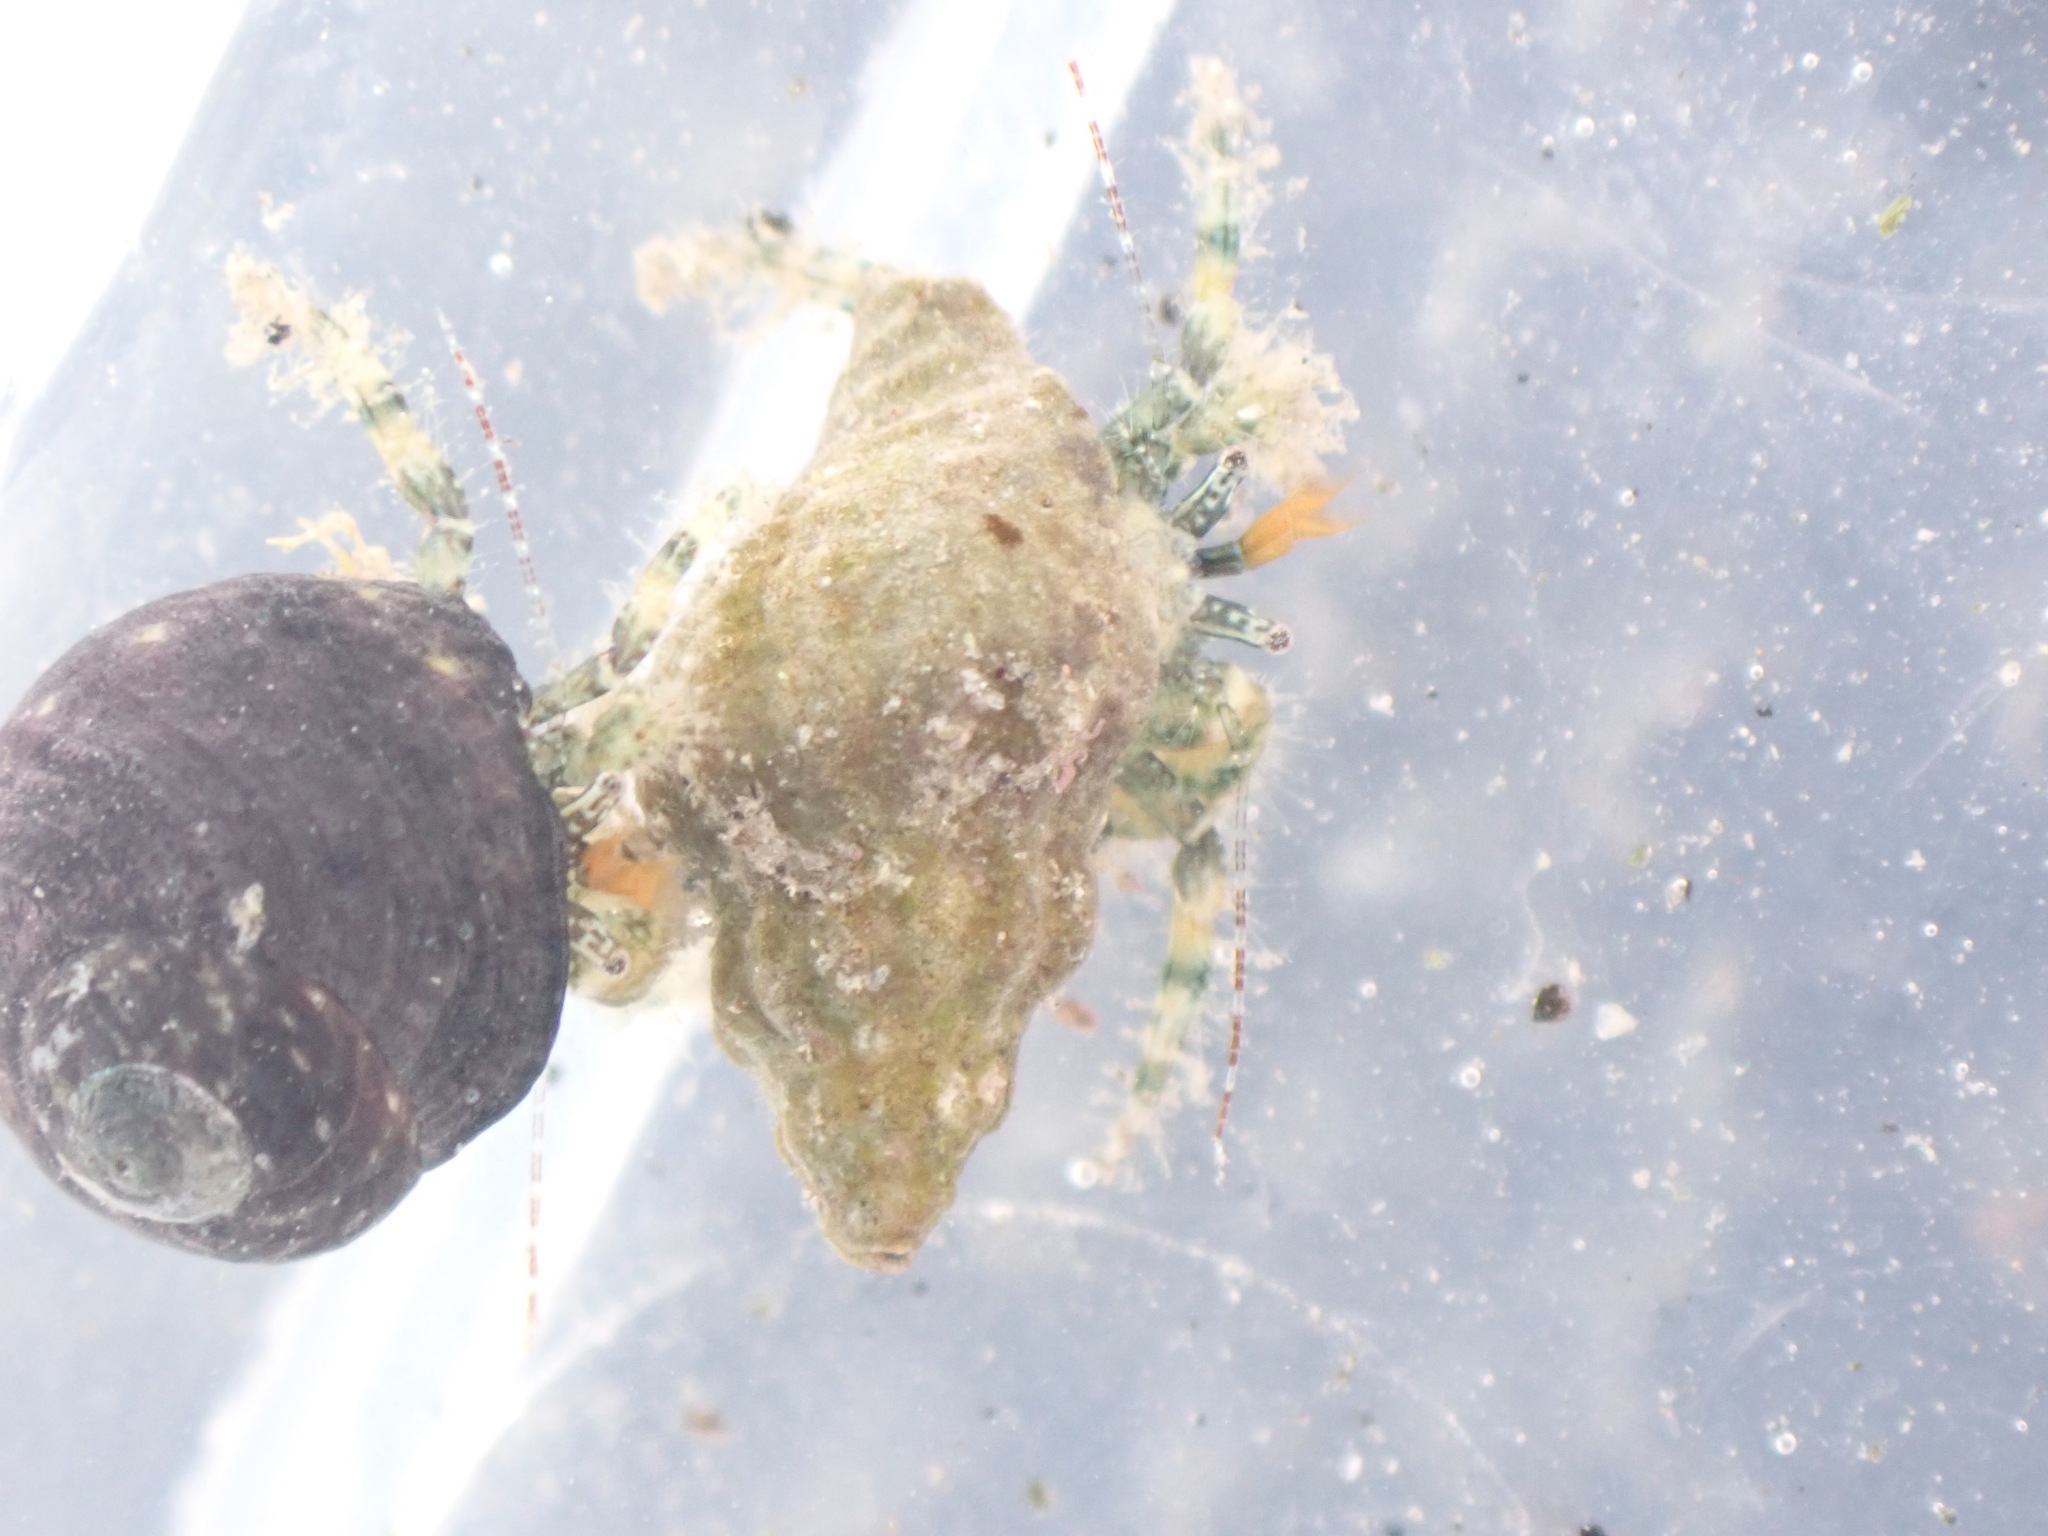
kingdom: Animalia
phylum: Arthropoda
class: Malacostraca
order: Decapoda
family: Paguridae
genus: Pagurus
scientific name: Pagurus traversi
